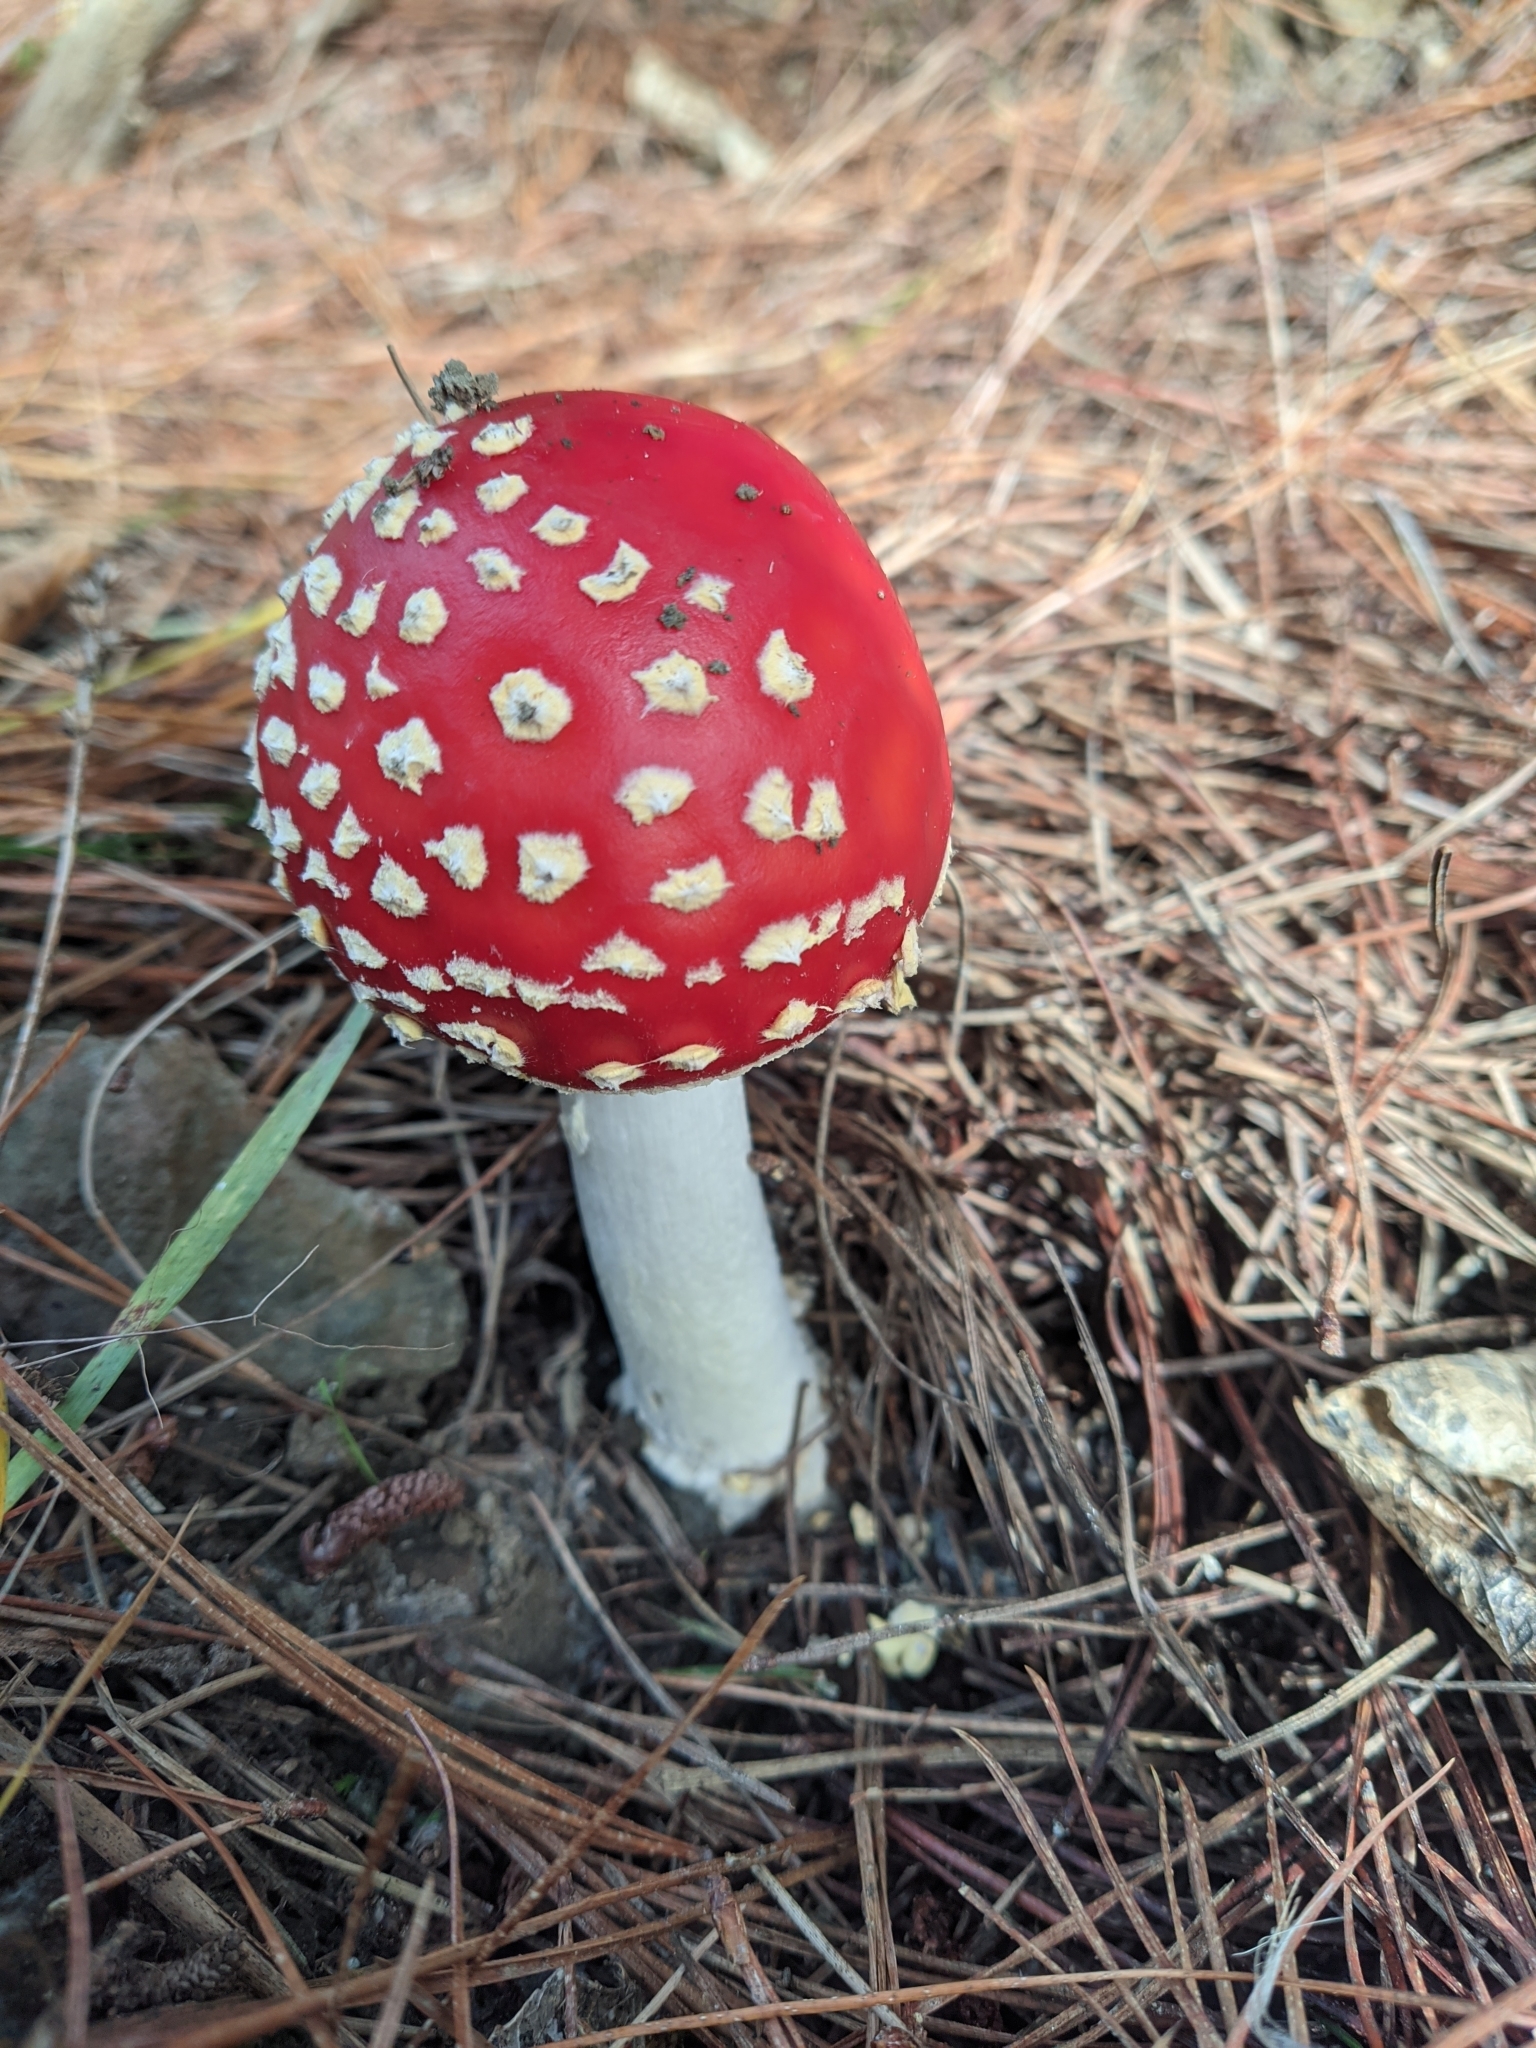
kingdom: Fungi
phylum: Basidiomycota
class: Agaricomycetes
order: Agaricales
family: Amanitaceae
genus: Amanita
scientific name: Amanita muscaria
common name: Fly agaric
